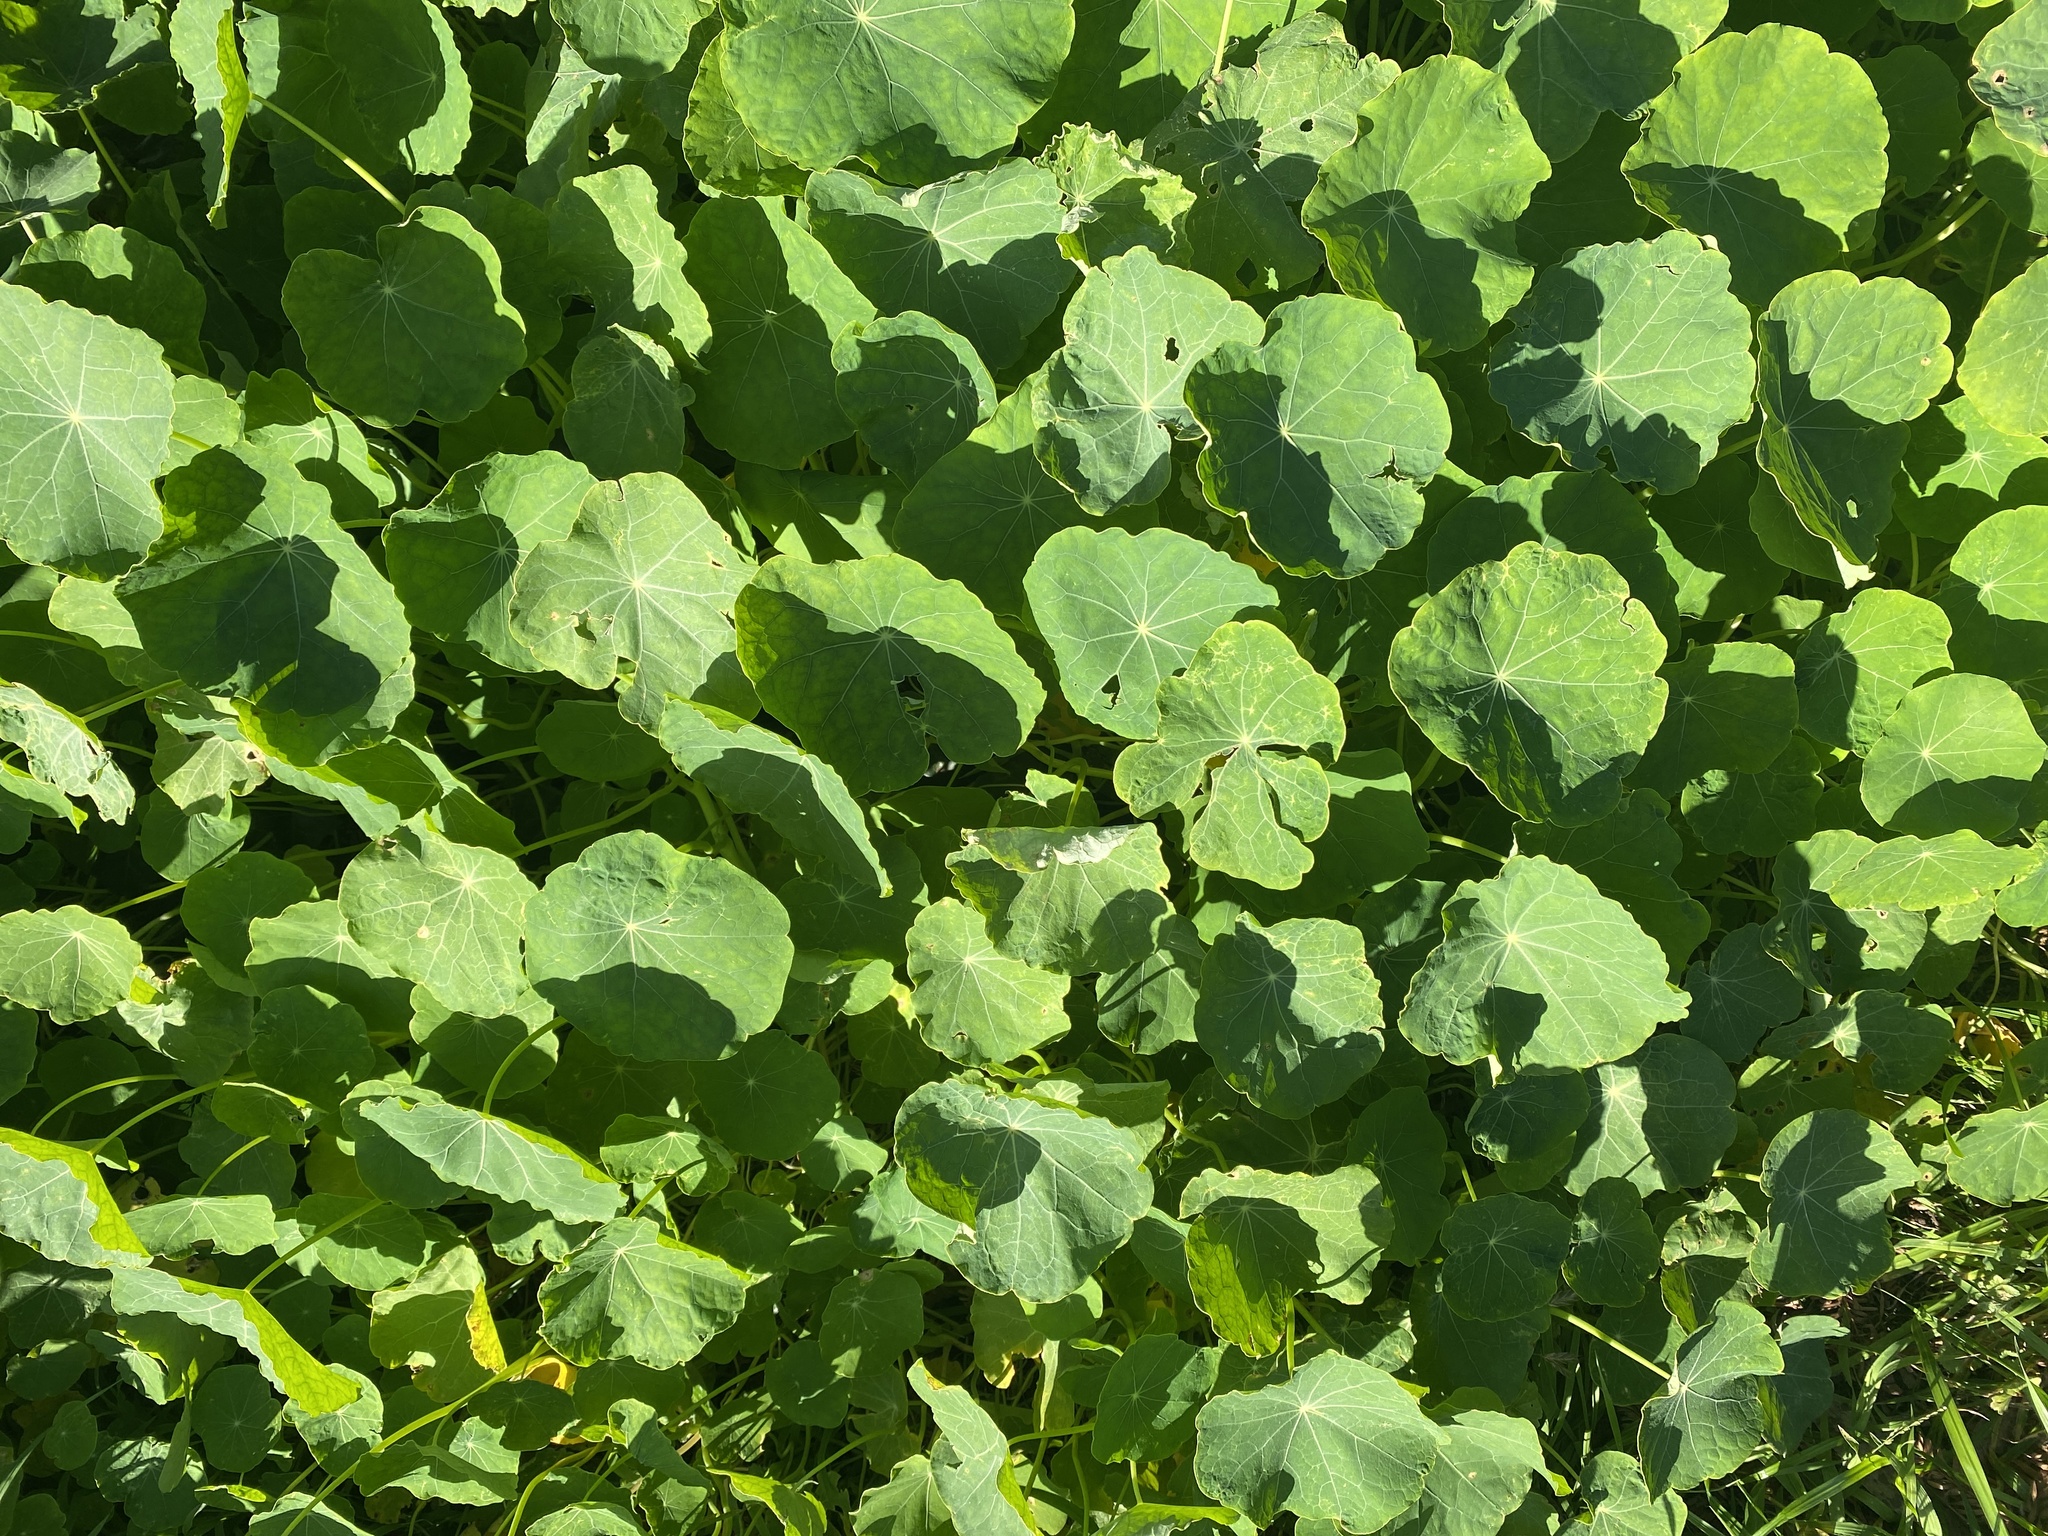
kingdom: Plantae
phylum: Tracheophyta
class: Magnoliopsida
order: Brassicales
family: Tropaeolaceae
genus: Tropaeolum
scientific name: Tropaeolum majus
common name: Nasturtium
